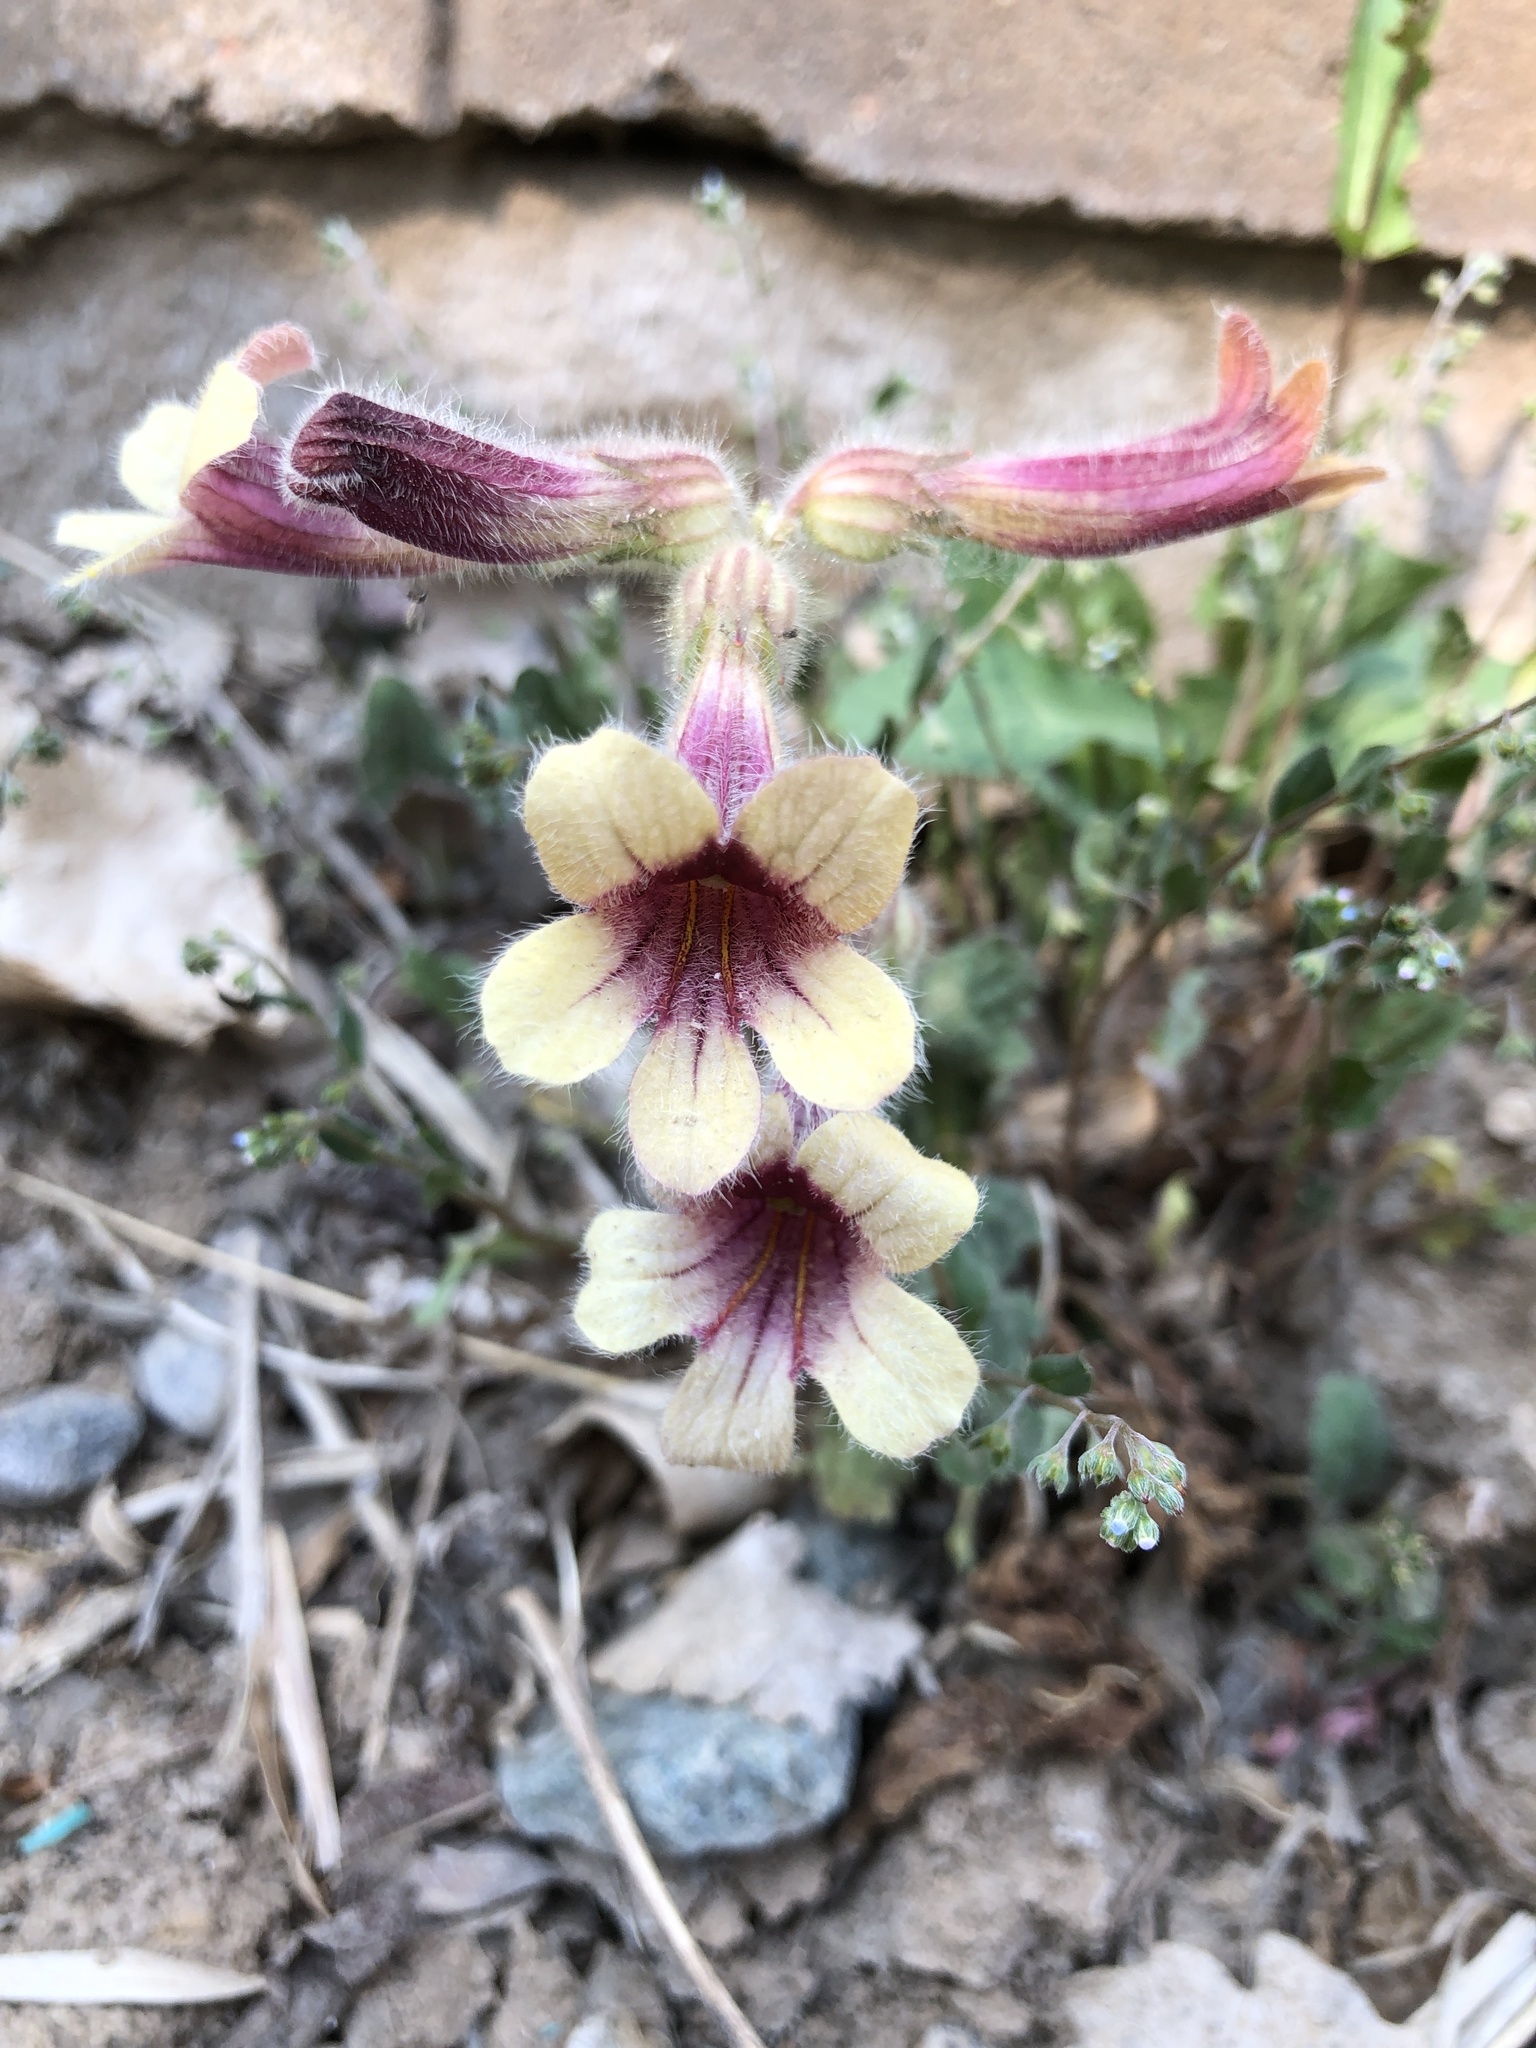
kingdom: Plantae
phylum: Tracheophyta
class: Magnoliopsida
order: Lamiales
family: Rehmanniaceae
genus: Rehmannia
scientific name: Rehmannia glutinosa
